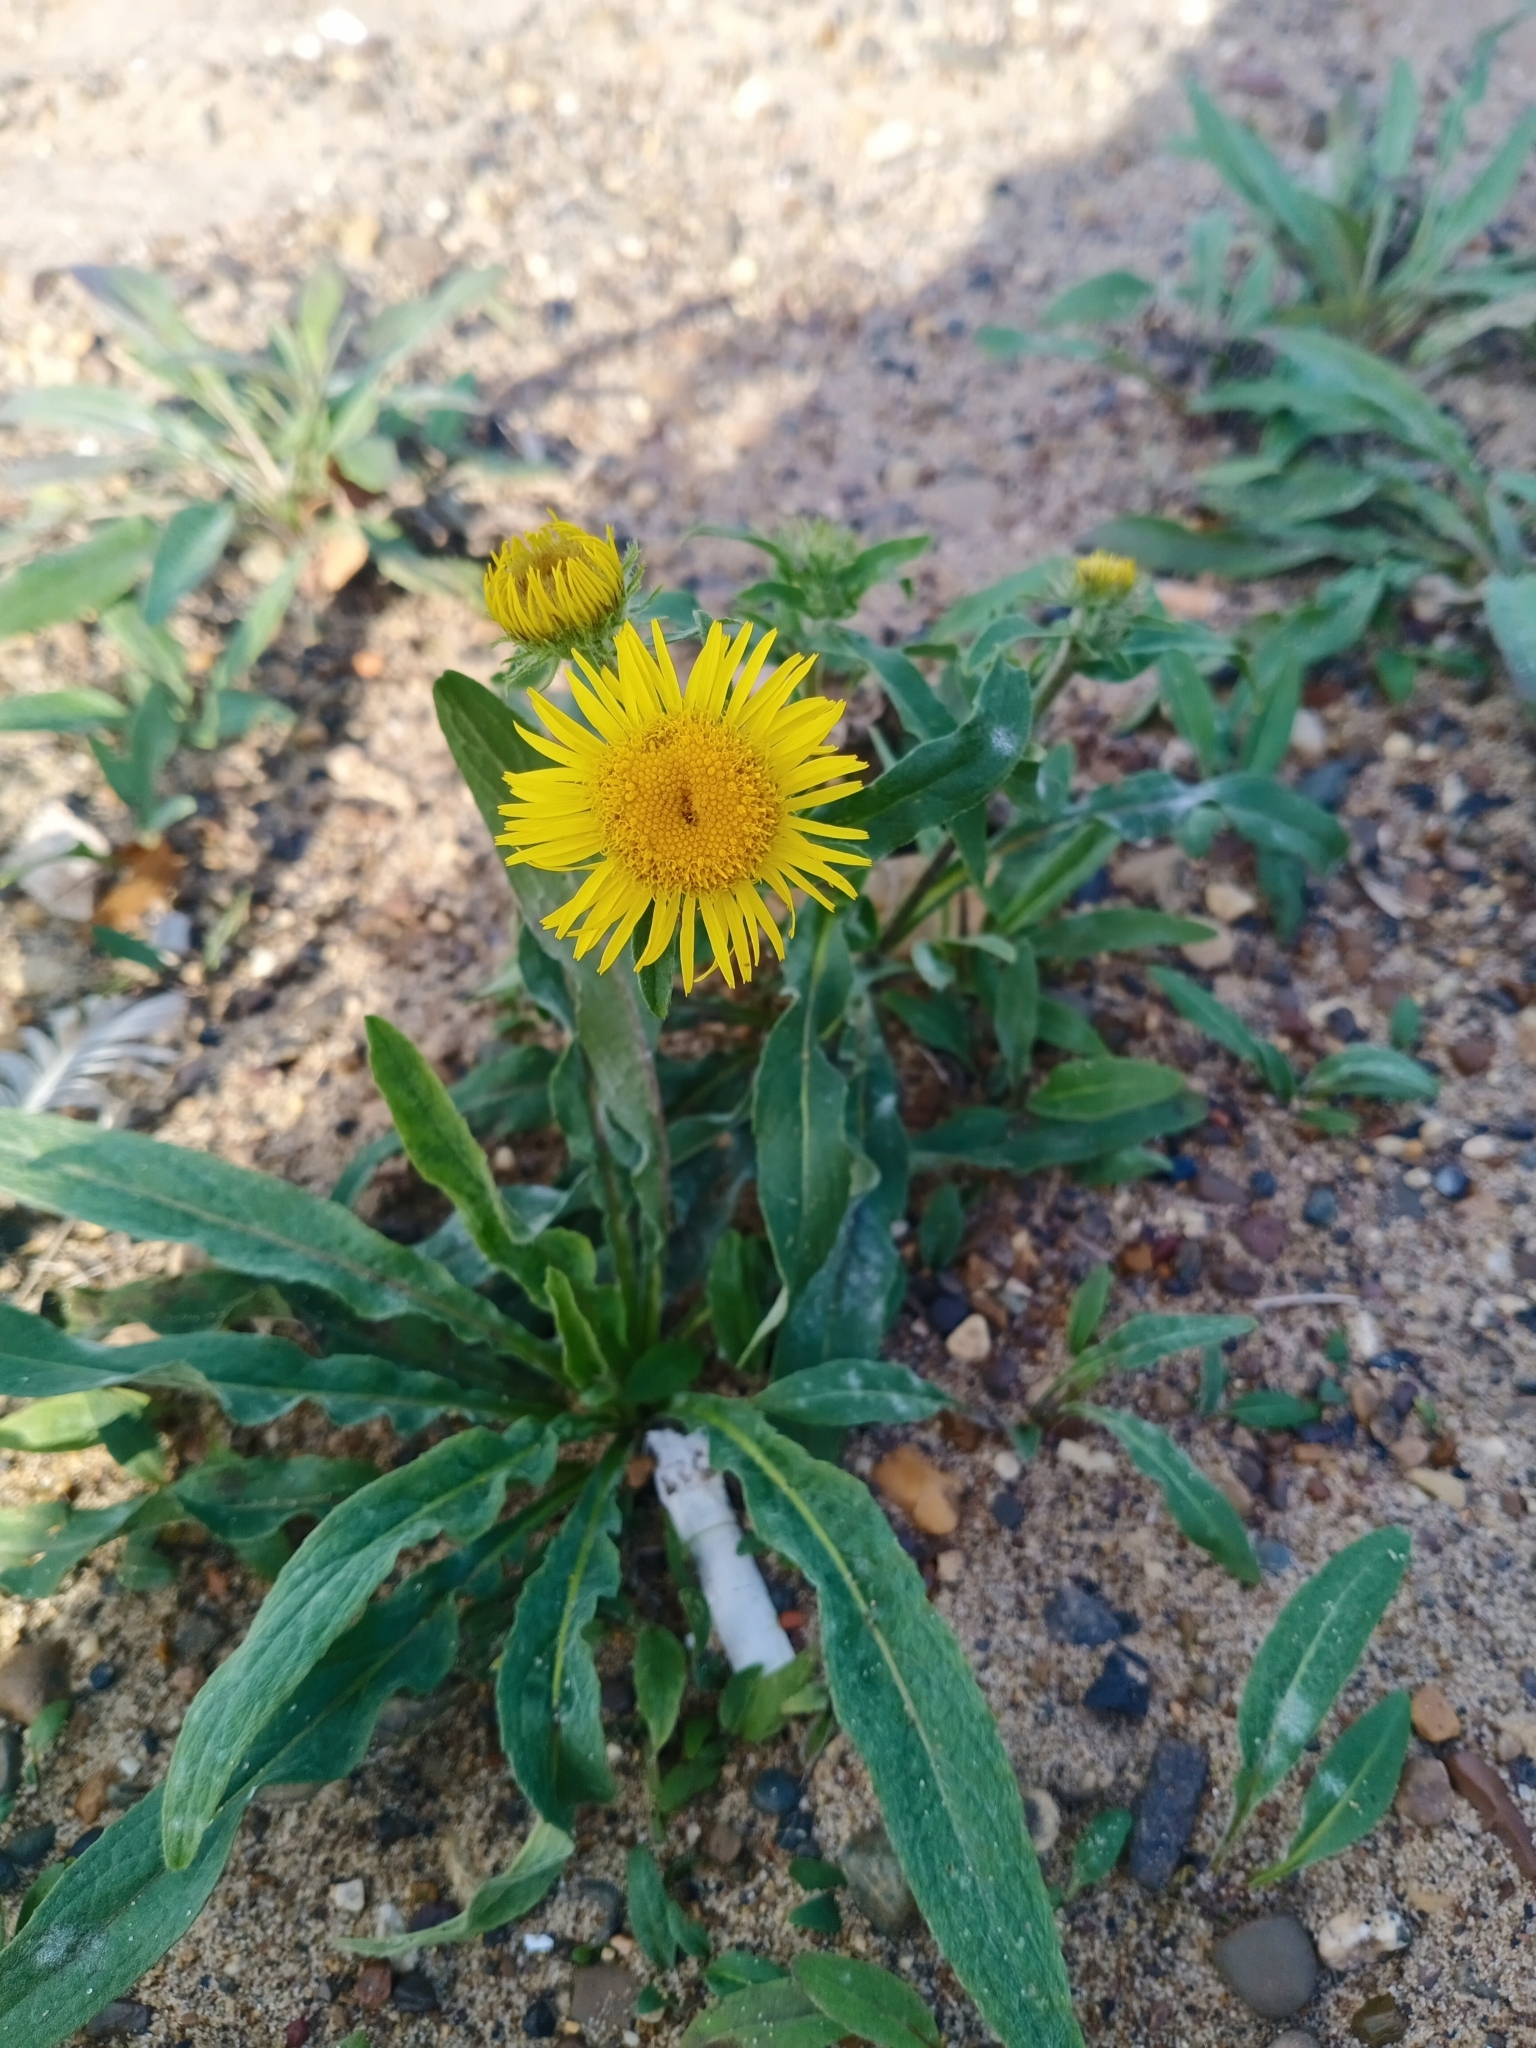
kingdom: Plantae
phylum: Tracheophyta
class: Magnoliopsida
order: Asterales
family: Asteraceae
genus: Pentanema
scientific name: Pentanema britannicum
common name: British elecampane
